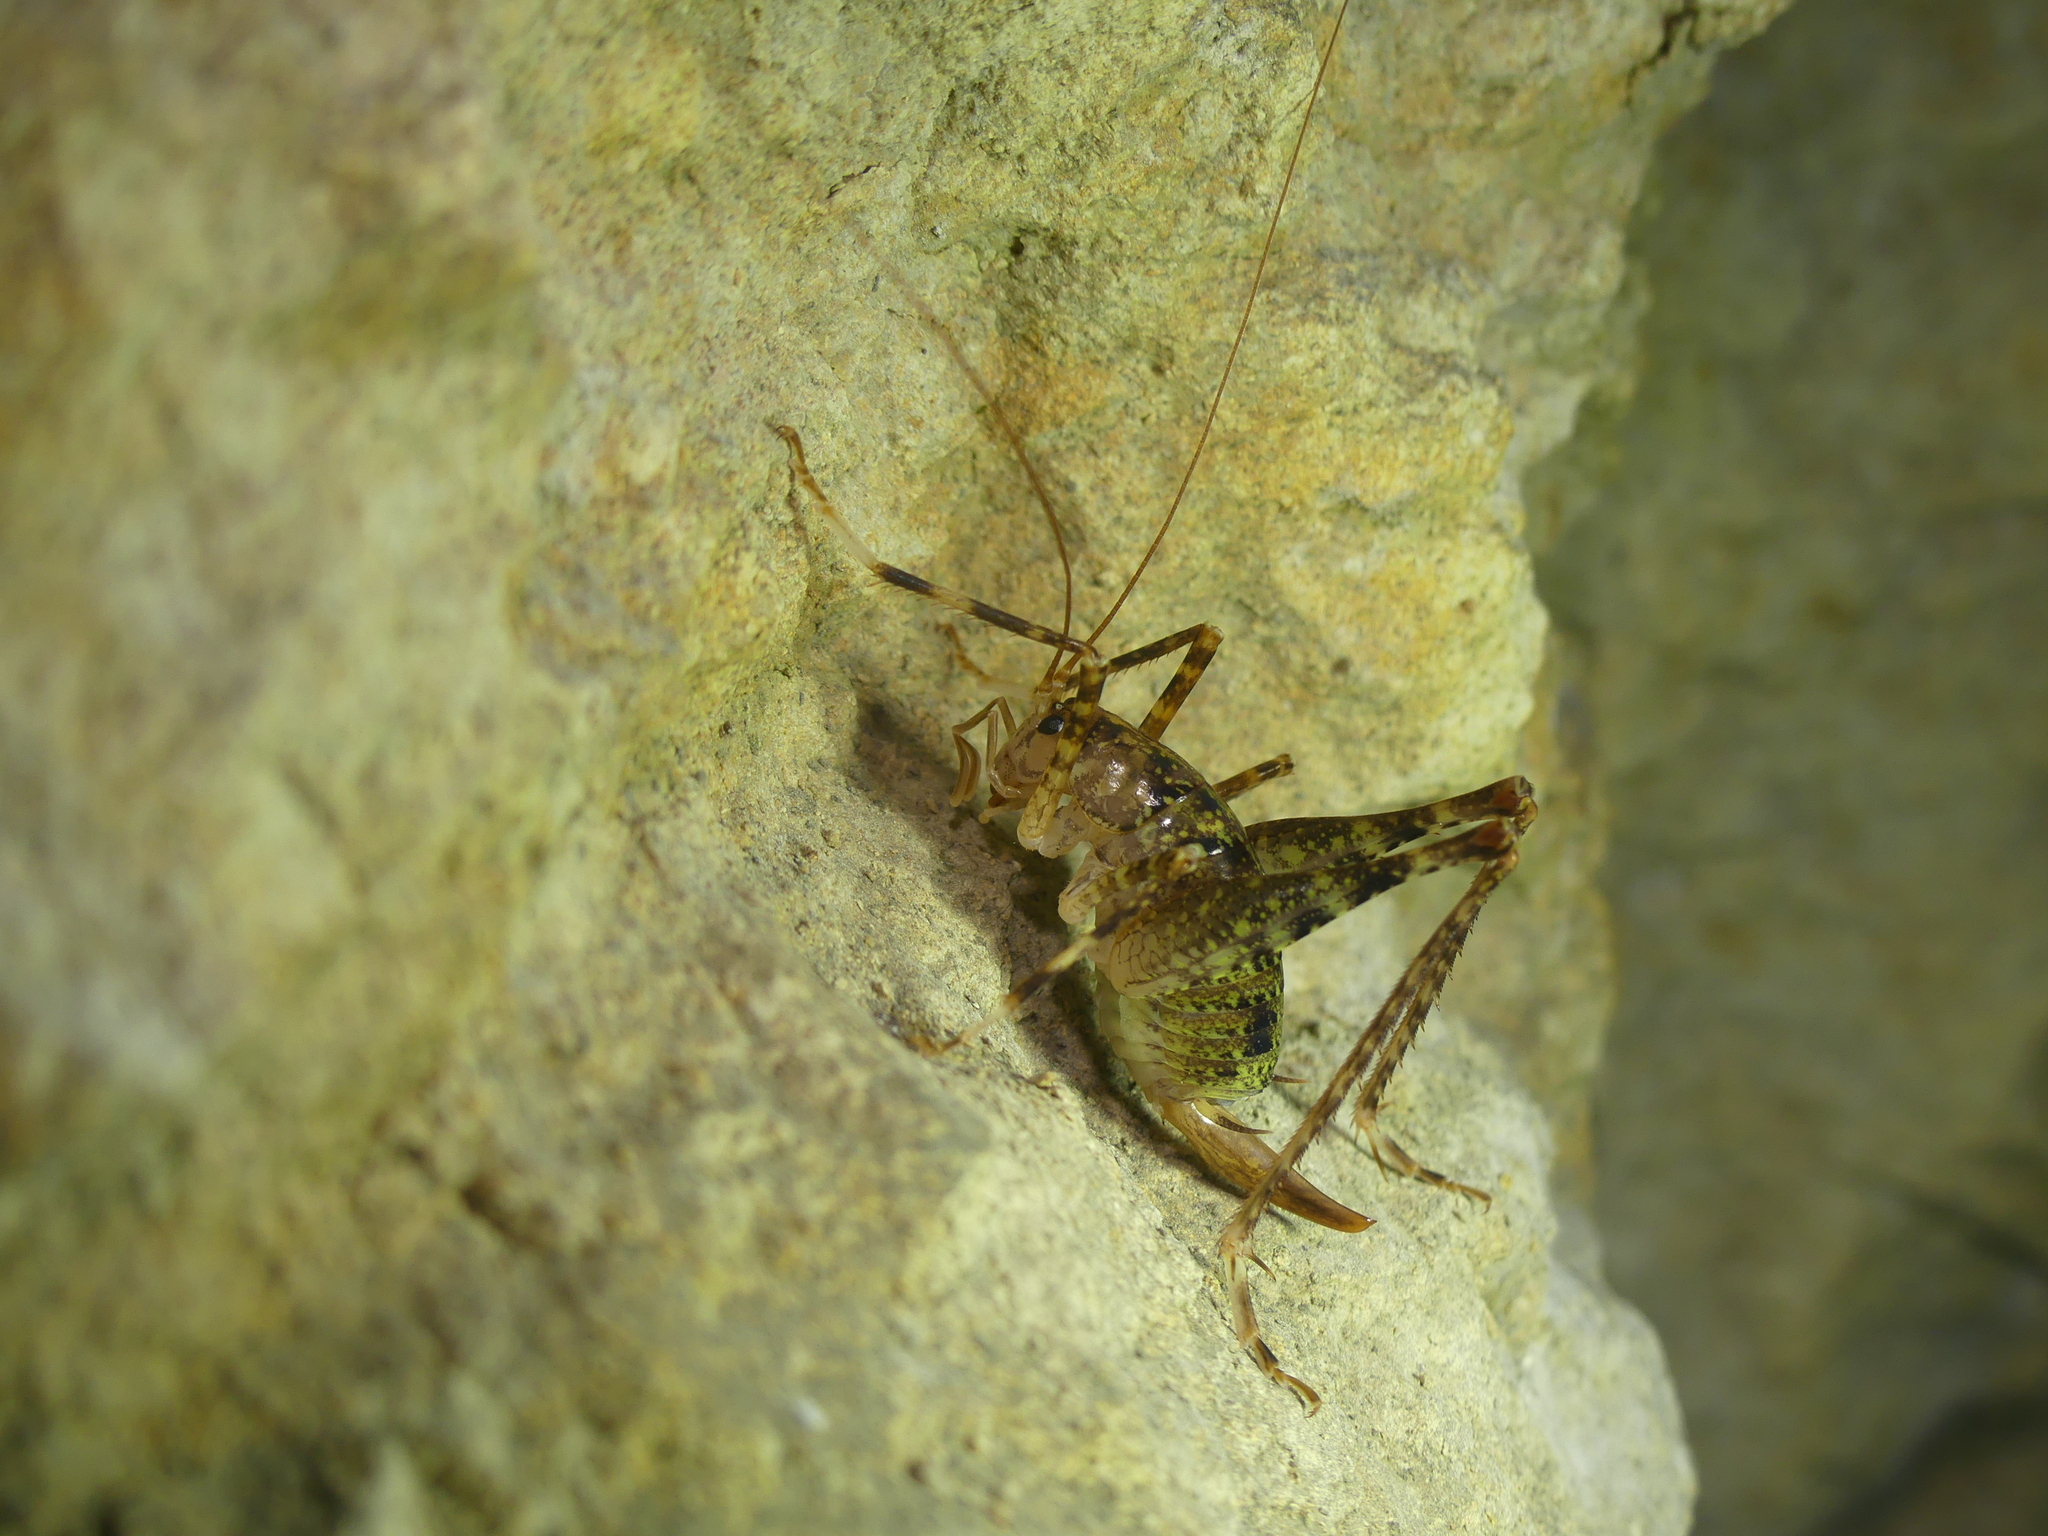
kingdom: Animalia
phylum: Arthropoda
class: Insecta
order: Orthoptera
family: Rhaphidophoridae
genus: Troglophilus
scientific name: Troglophilus neglectus
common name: Neglected cave-cricket
